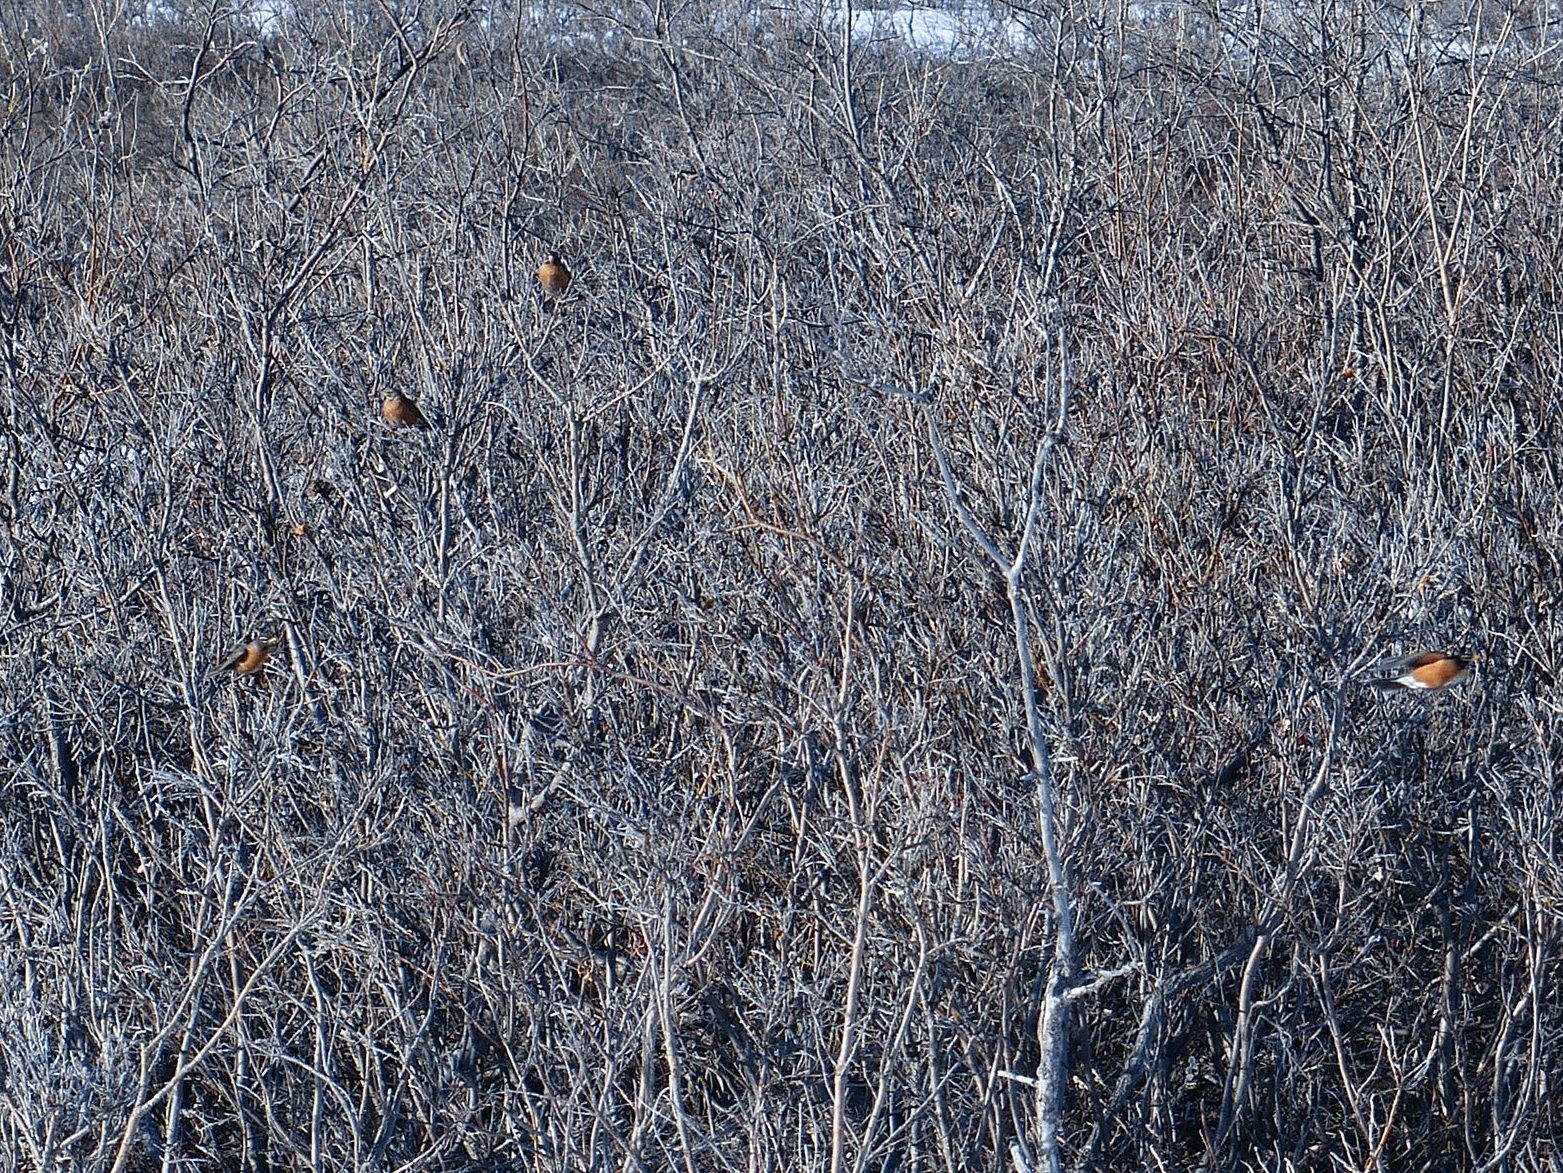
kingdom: Animalia
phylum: Chordata
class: Aves
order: Passeriformes
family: Turdidae
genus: Turdus
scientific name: Turdus migratorius
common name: American robin
